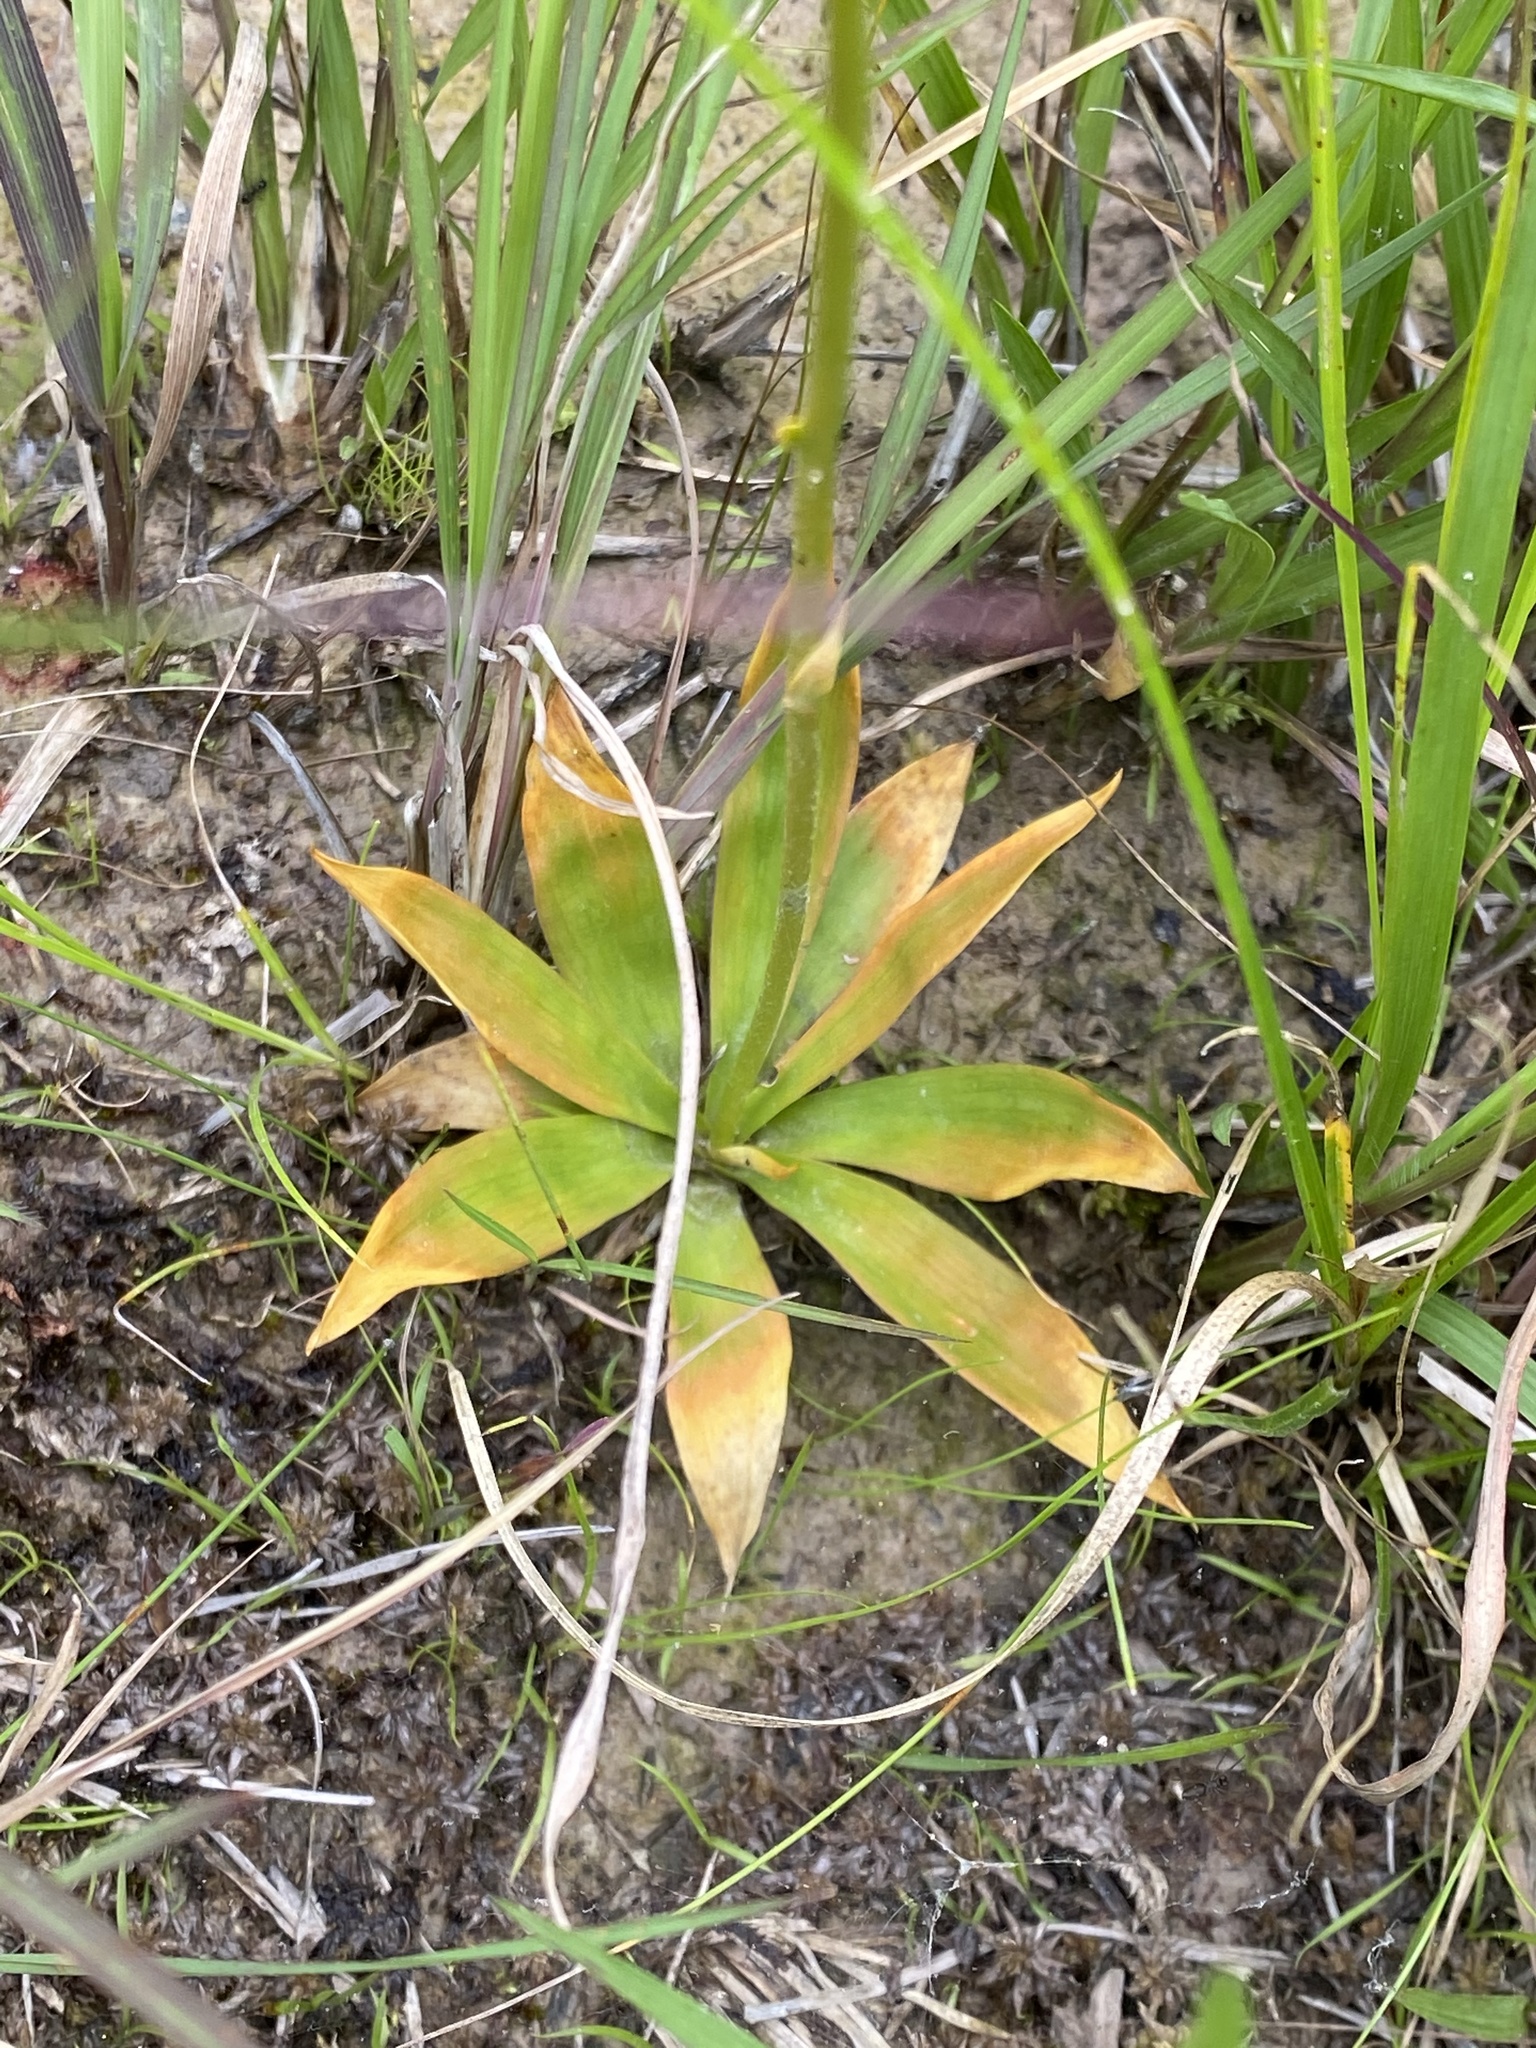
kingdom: Plantae
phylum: Tracheophyta
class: Liliopsida
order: Dioscoreales
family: Nartheciaceae
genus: Aletris
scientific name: Aletris farinosa
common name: Colicroot
